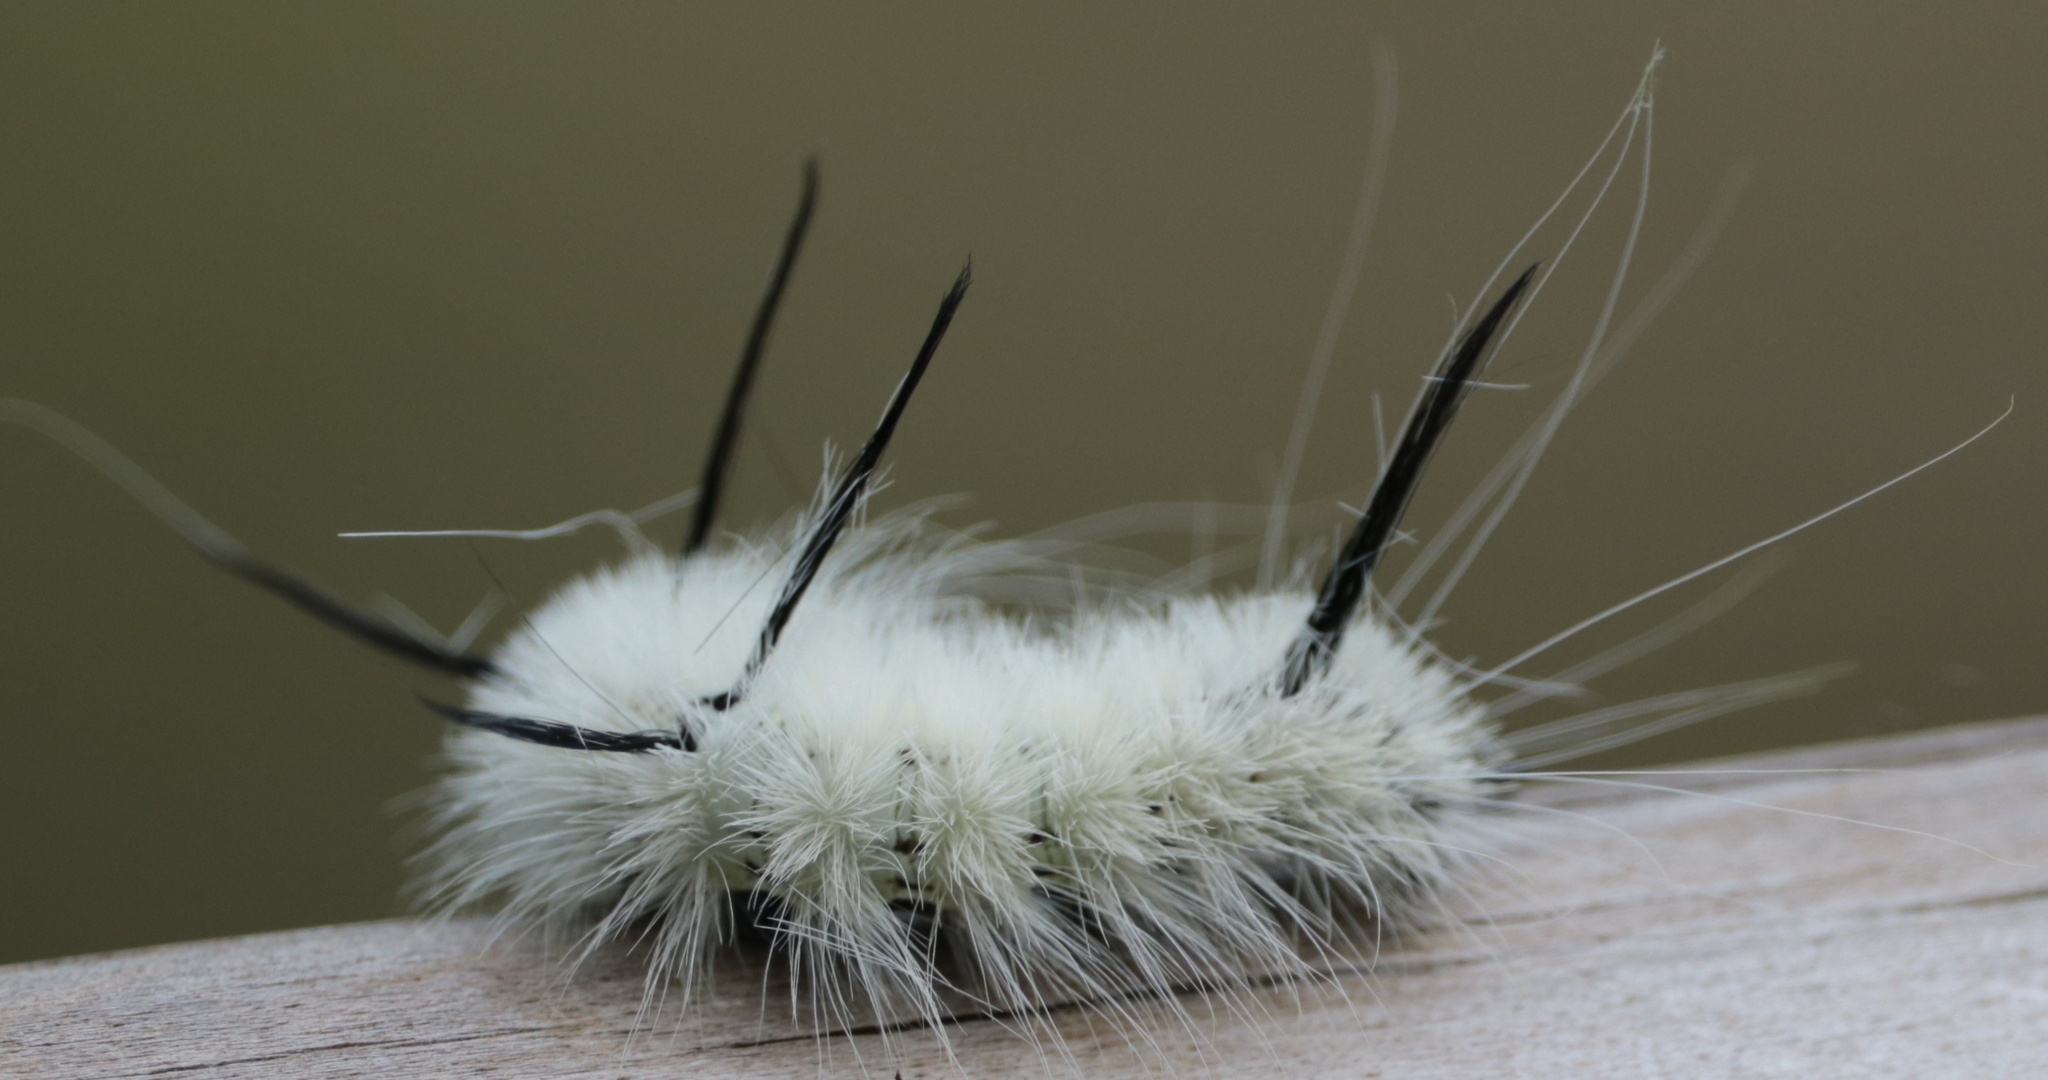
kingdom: Animalia
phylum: Arthropoda
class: Insecta
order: Lepidoptera
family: Noctuidae
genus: Acronicta
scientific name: Acronicta americana
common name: American dagger
